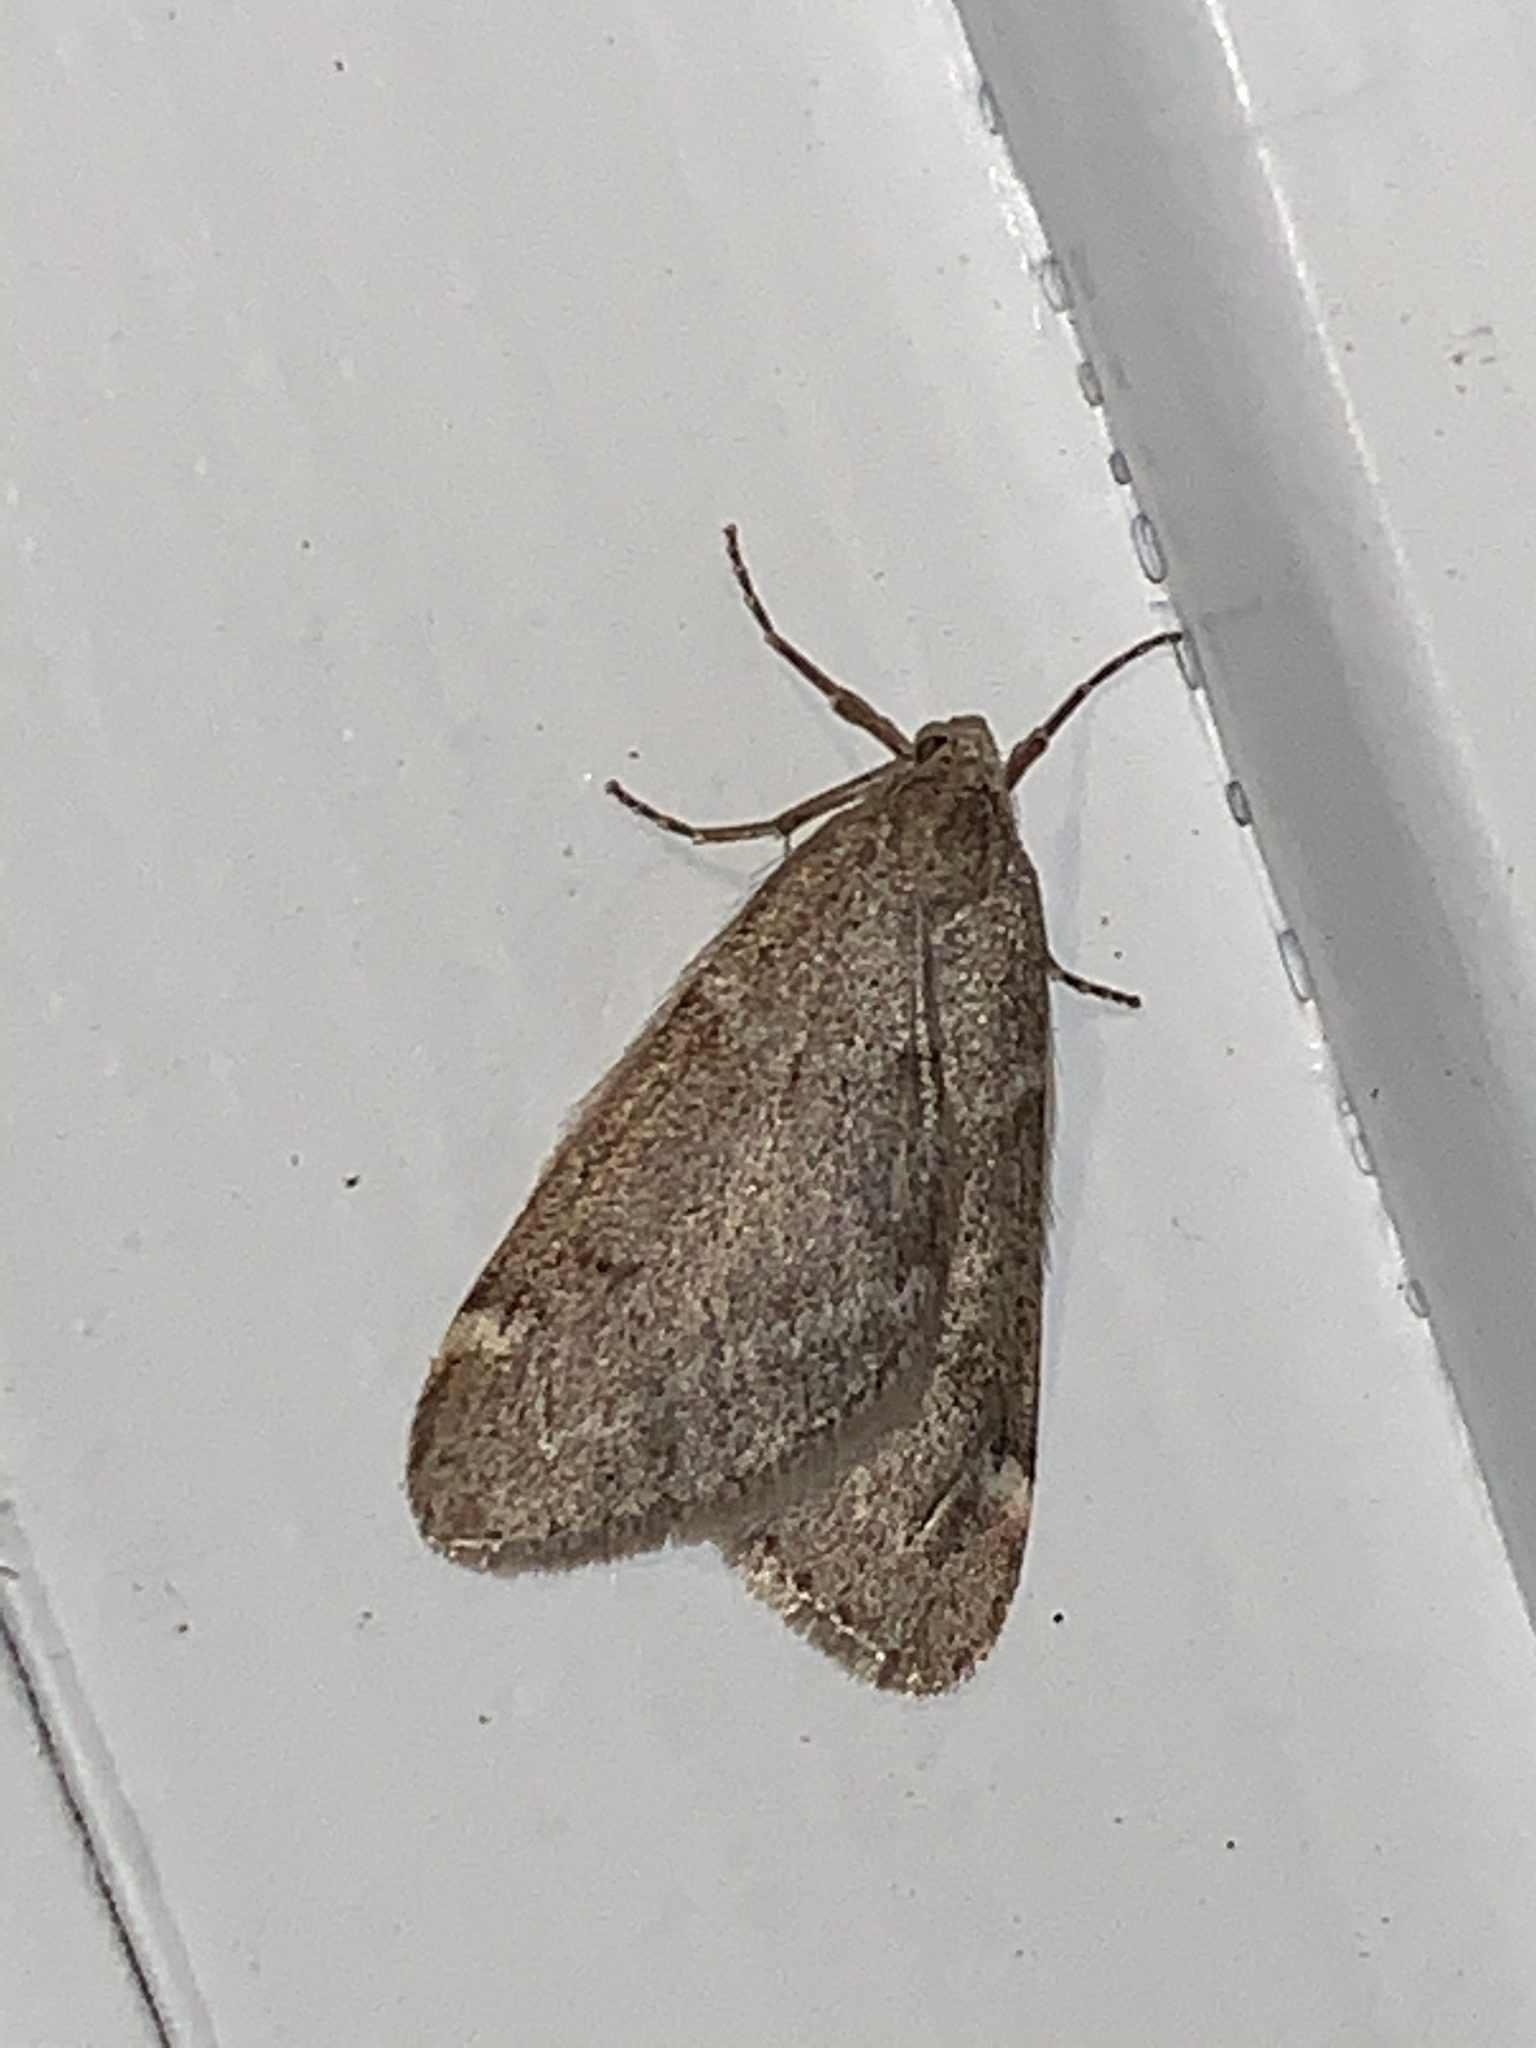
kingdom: Animalia
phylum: Arthropoda
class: Insecta
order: Lepidoptera
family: Geometridae
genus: Alsophila
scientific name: Alsophila pometaria
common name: Fall cankerworm
